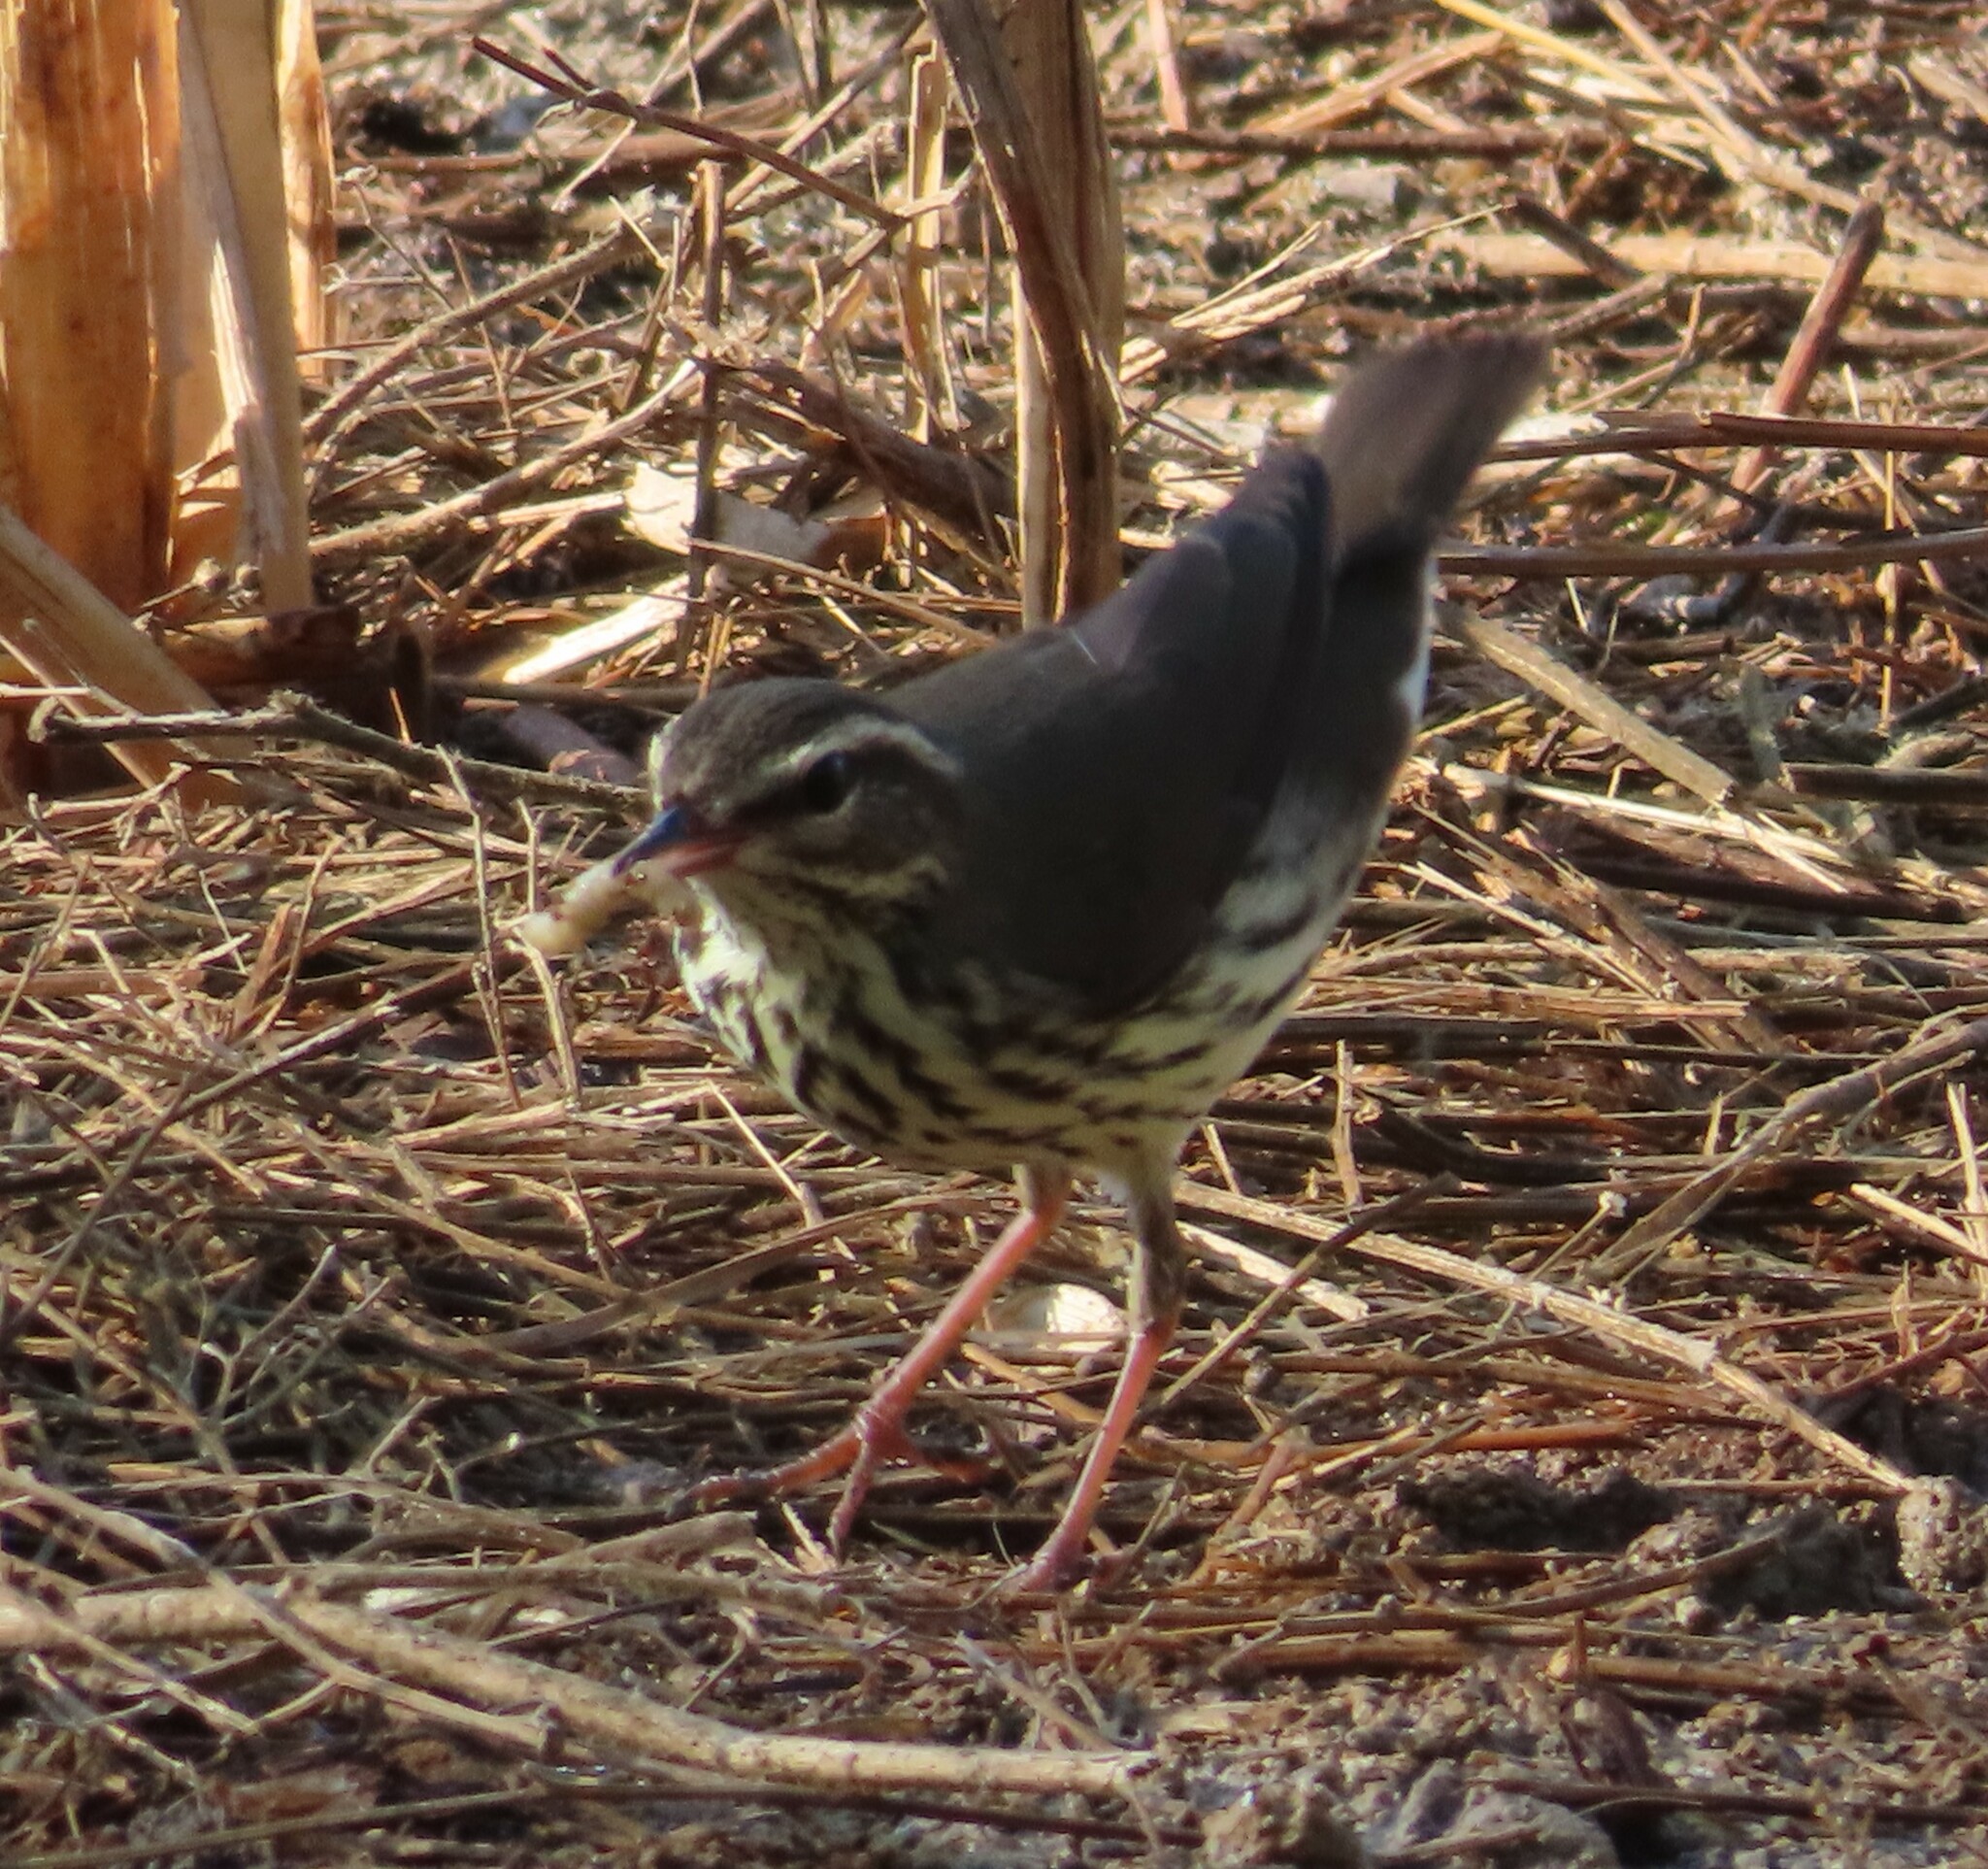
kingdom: Animalia
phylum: Chordata
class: Aves
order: Passeriformes
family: Parulidae
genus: Parkesia
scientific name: Parkesia noveboracensis
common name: Northern waterthrush
